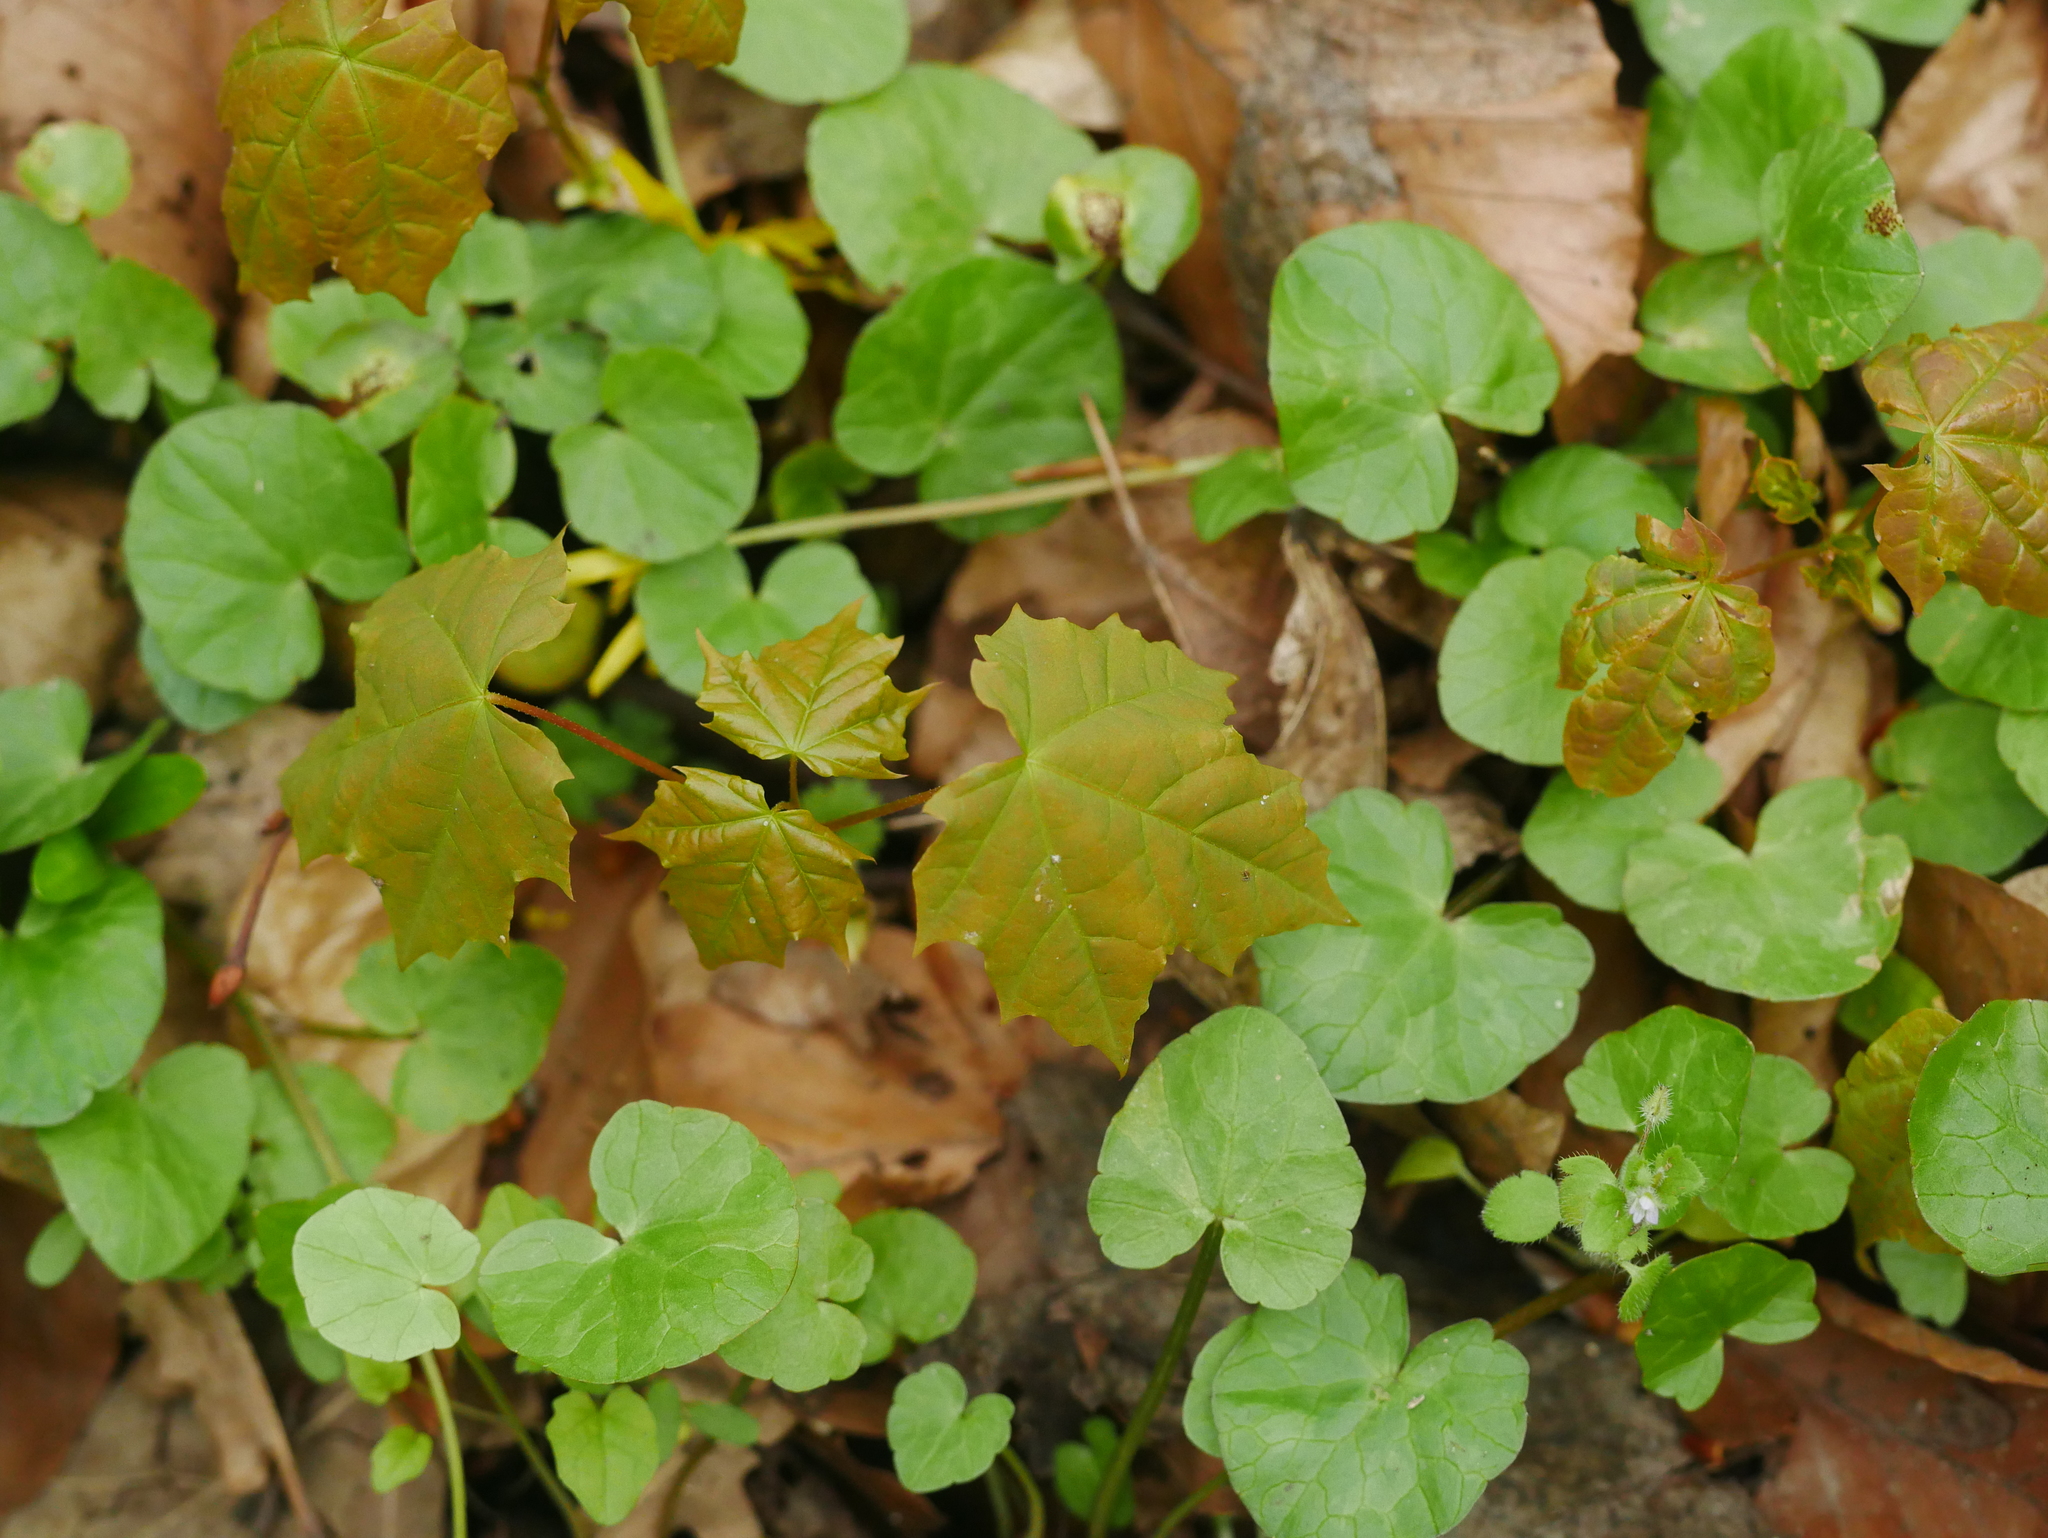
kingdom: Plantae
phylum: Tracheophyta
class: Magnoliopsida
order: Sapindales
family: Sapindaceae
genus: Acer
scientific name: Acer platanoides
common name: Norway maple
